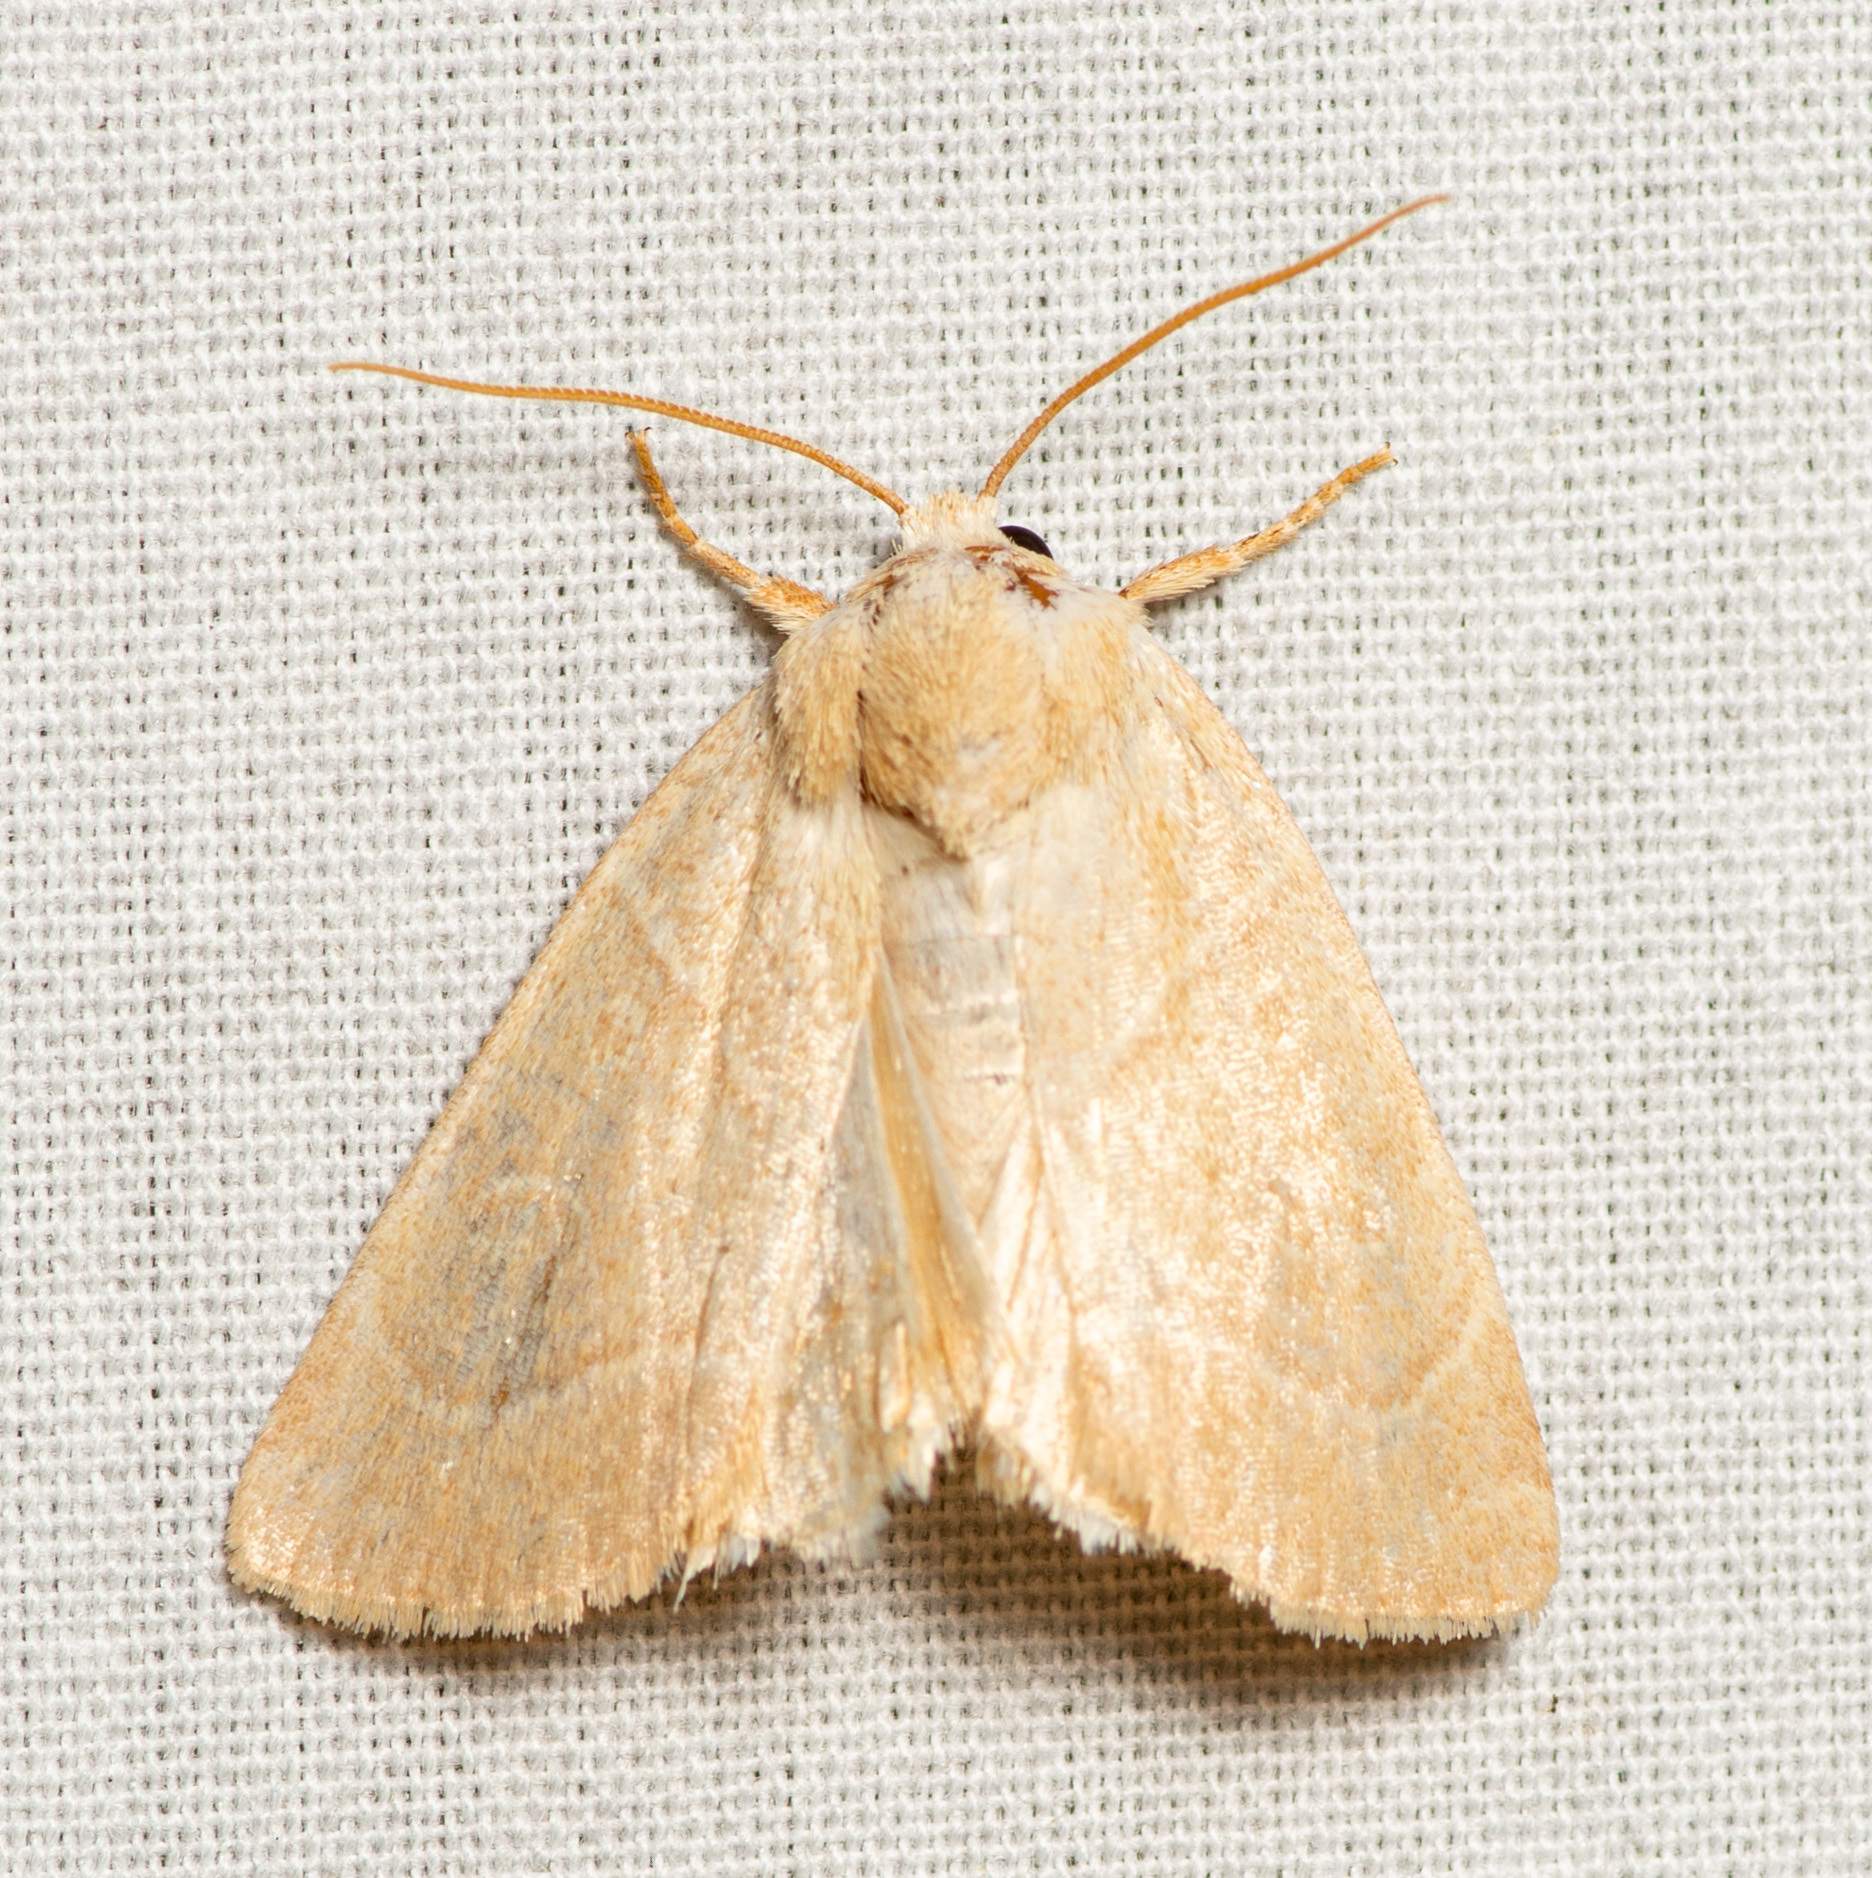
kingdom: Animalia
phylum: Arthropoda
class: Insecta
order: Lepidoptera
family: Noctuidae
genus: Cosmia
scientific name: Cosmia calami
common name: American dun-bar moth
